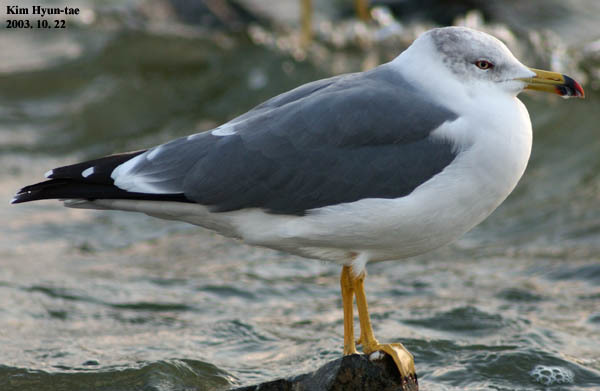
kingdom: Animalia
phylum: Chordata
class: Aves
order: Charadriiformes
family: Laridae
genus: Larus
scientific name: Larus crassirostris
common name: Black-tailed gull
